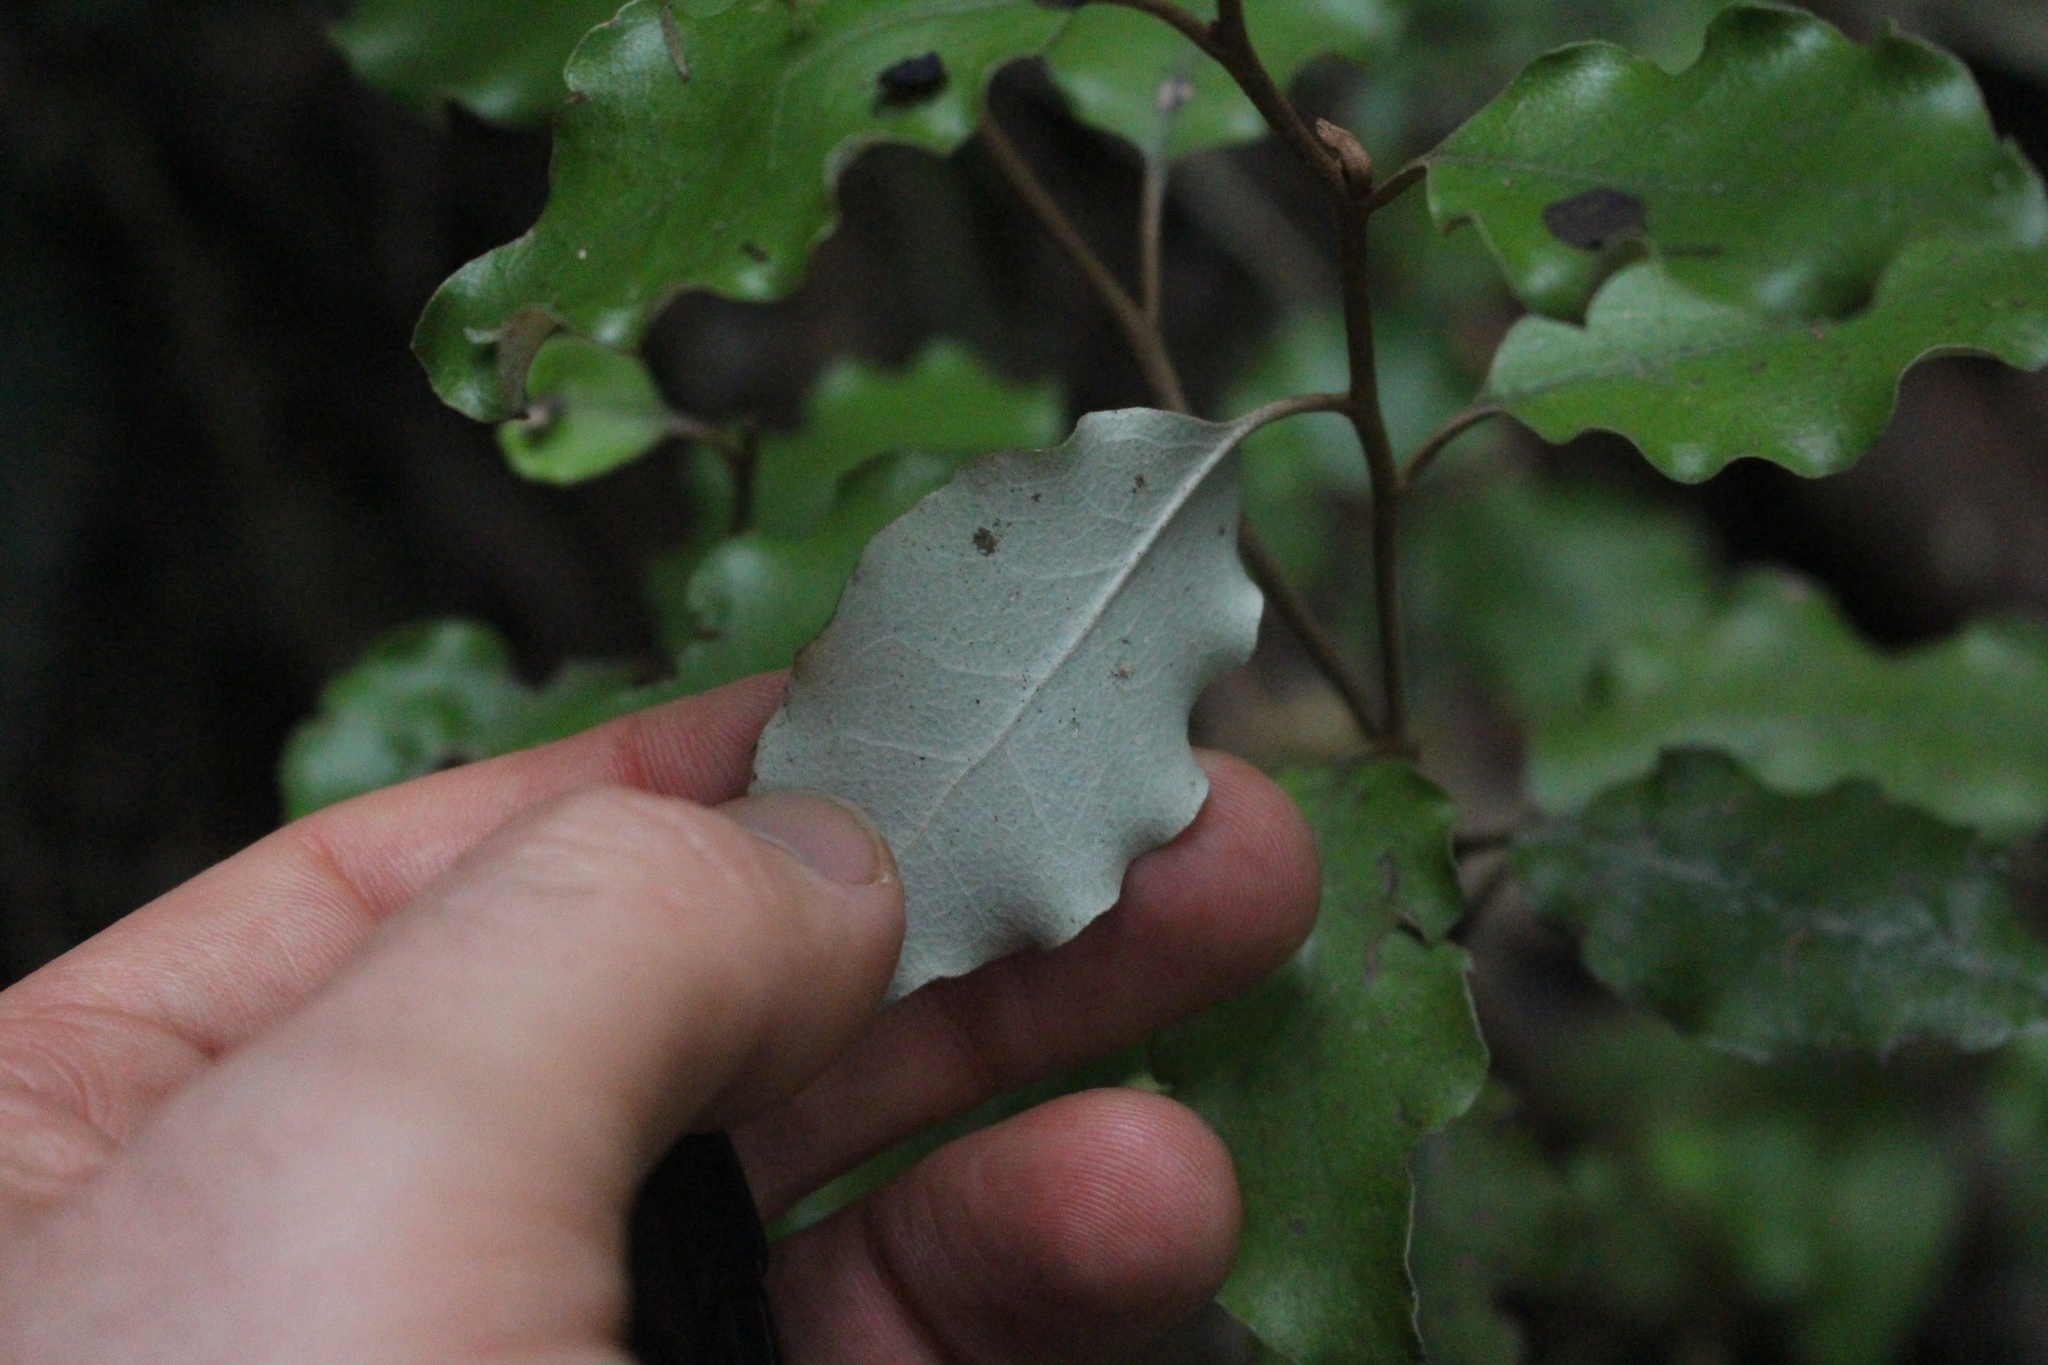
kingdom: Plantae
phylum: Tracheophyta
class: Magnoliopsida
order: Asterales
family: Asteraceae
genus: Olearia
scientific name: Olearia paniculata
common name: Akiraho
